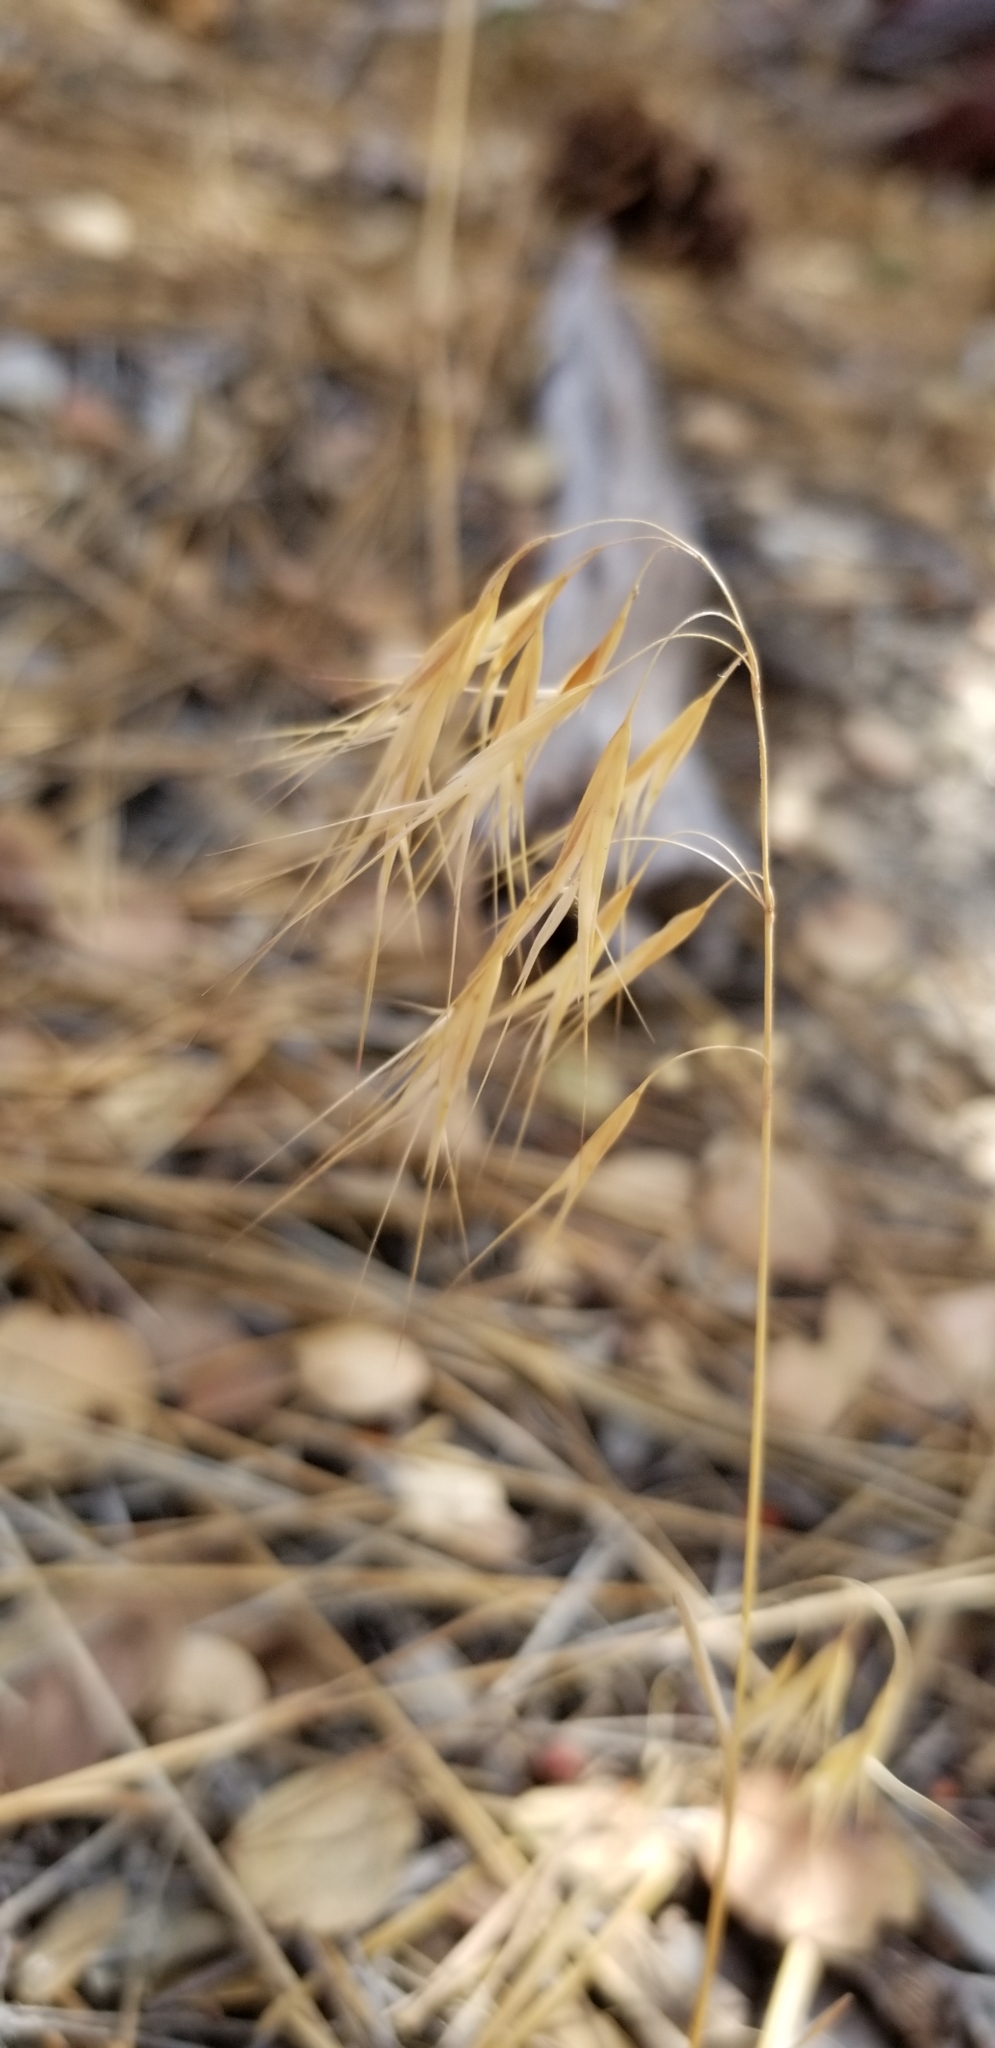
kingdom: Plantae
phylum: Tracheophyta
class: Liliopsida
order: Poales
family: Poaceae
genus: Bromus
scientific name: Bromus tectorum
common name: Cheatgrass
